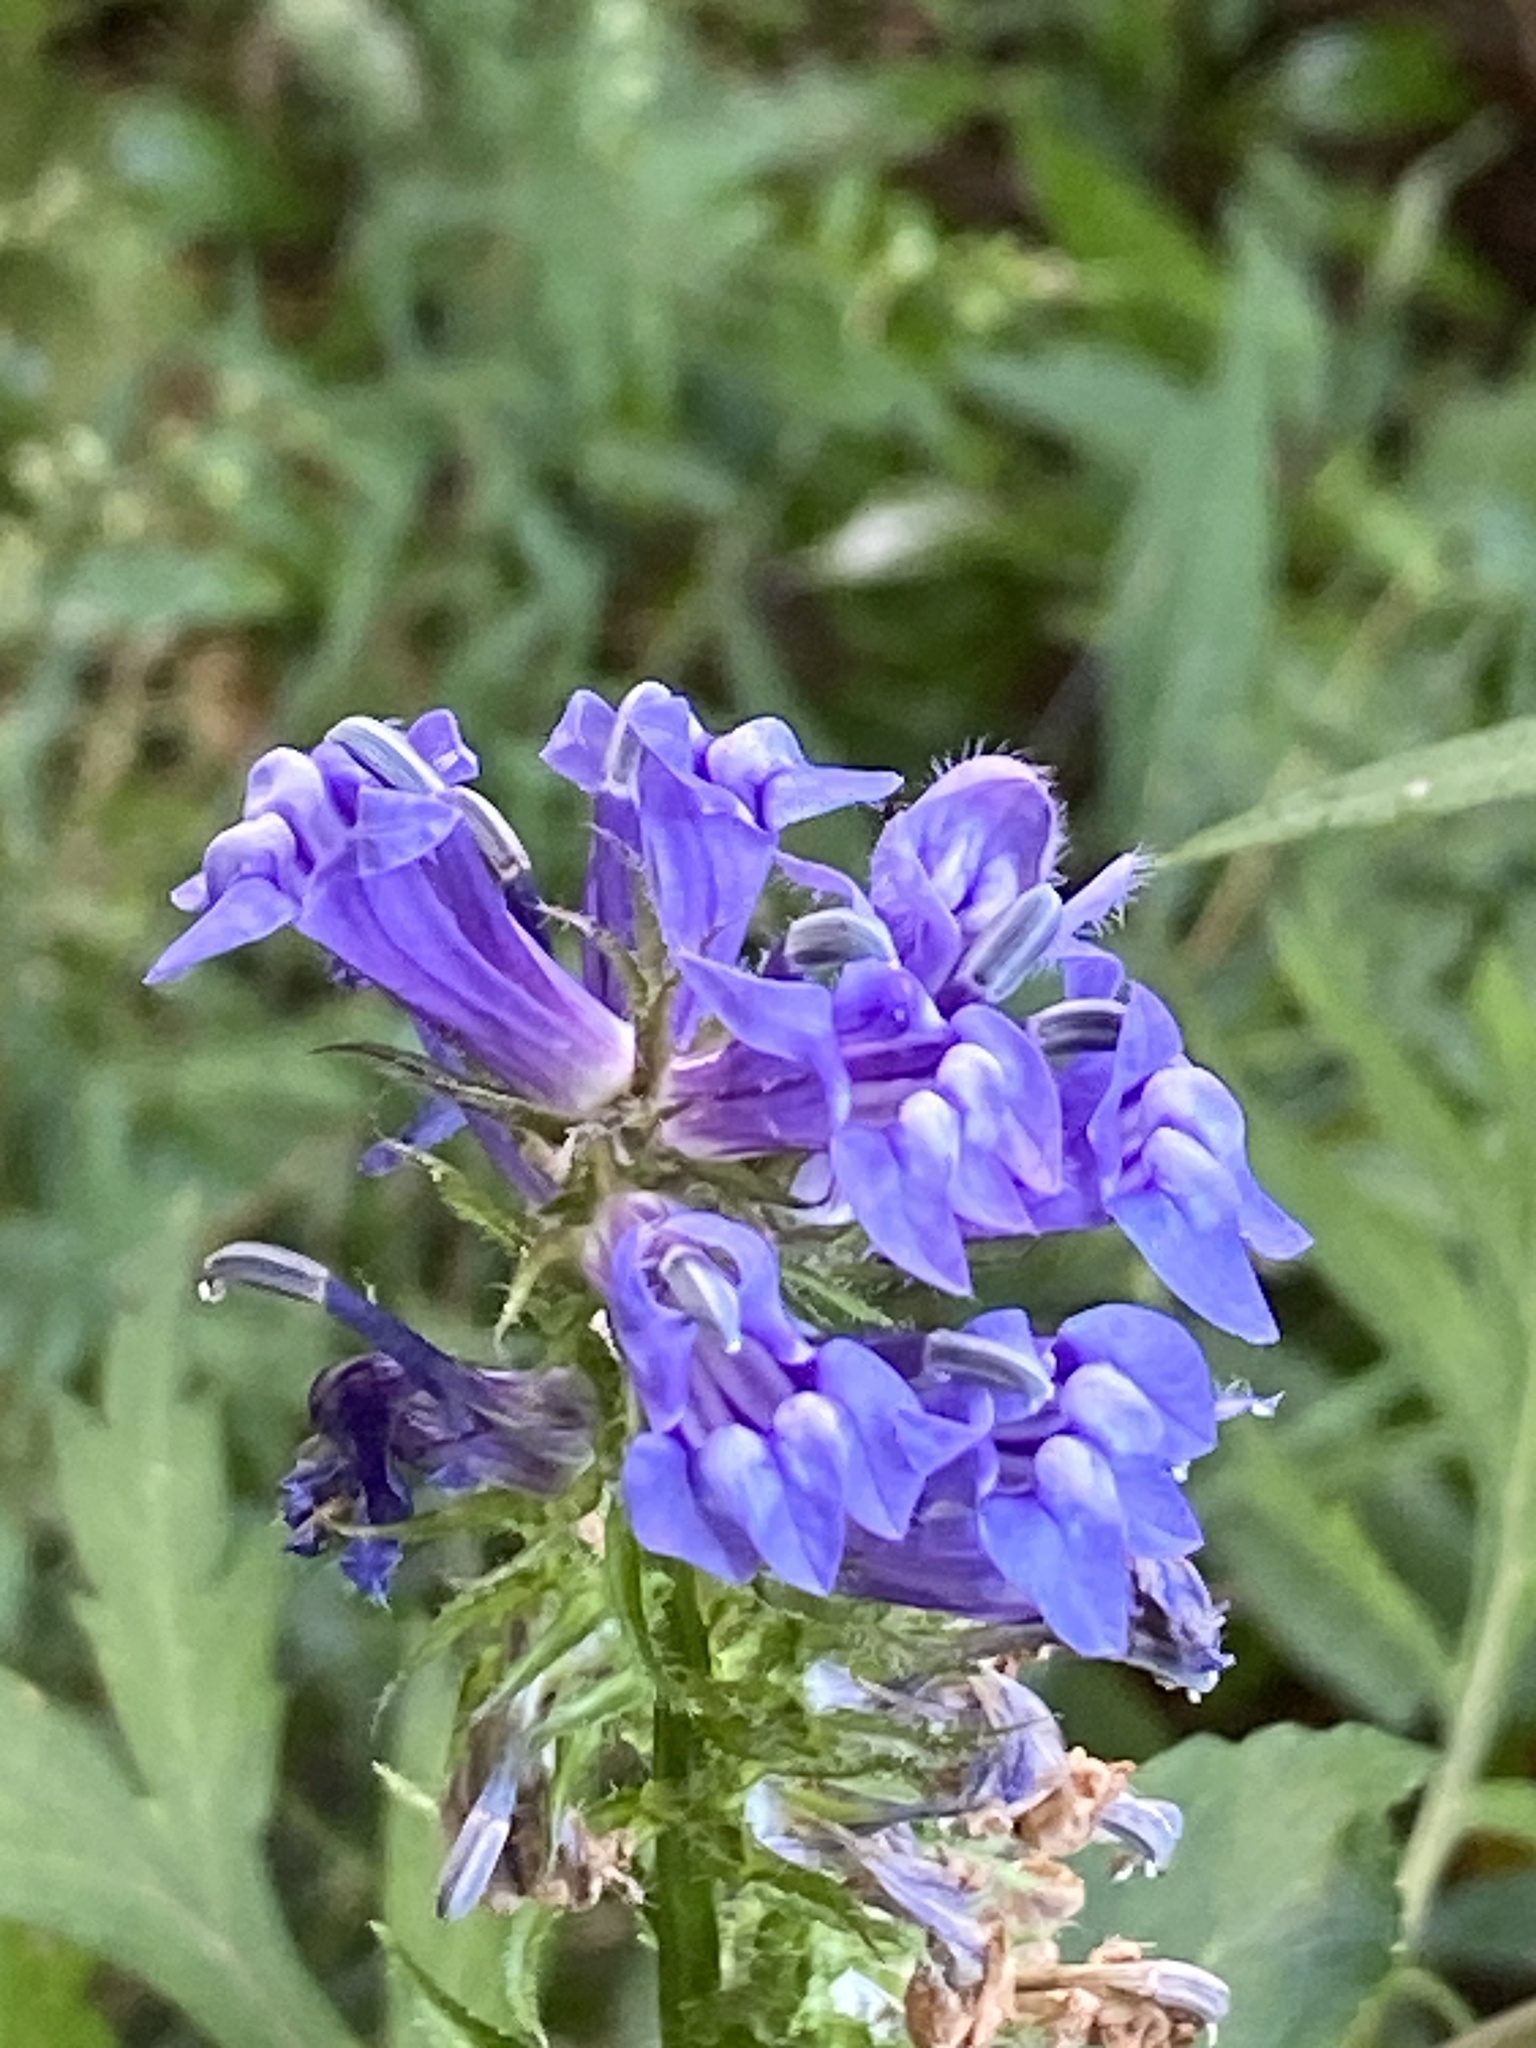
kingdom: Plantae
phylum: Tracheophyta
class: Magnoliopsida
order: Asterales
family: Campanulaceae
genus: Lobelia
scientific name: Lobelia siphilitica
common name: Great lobelia
